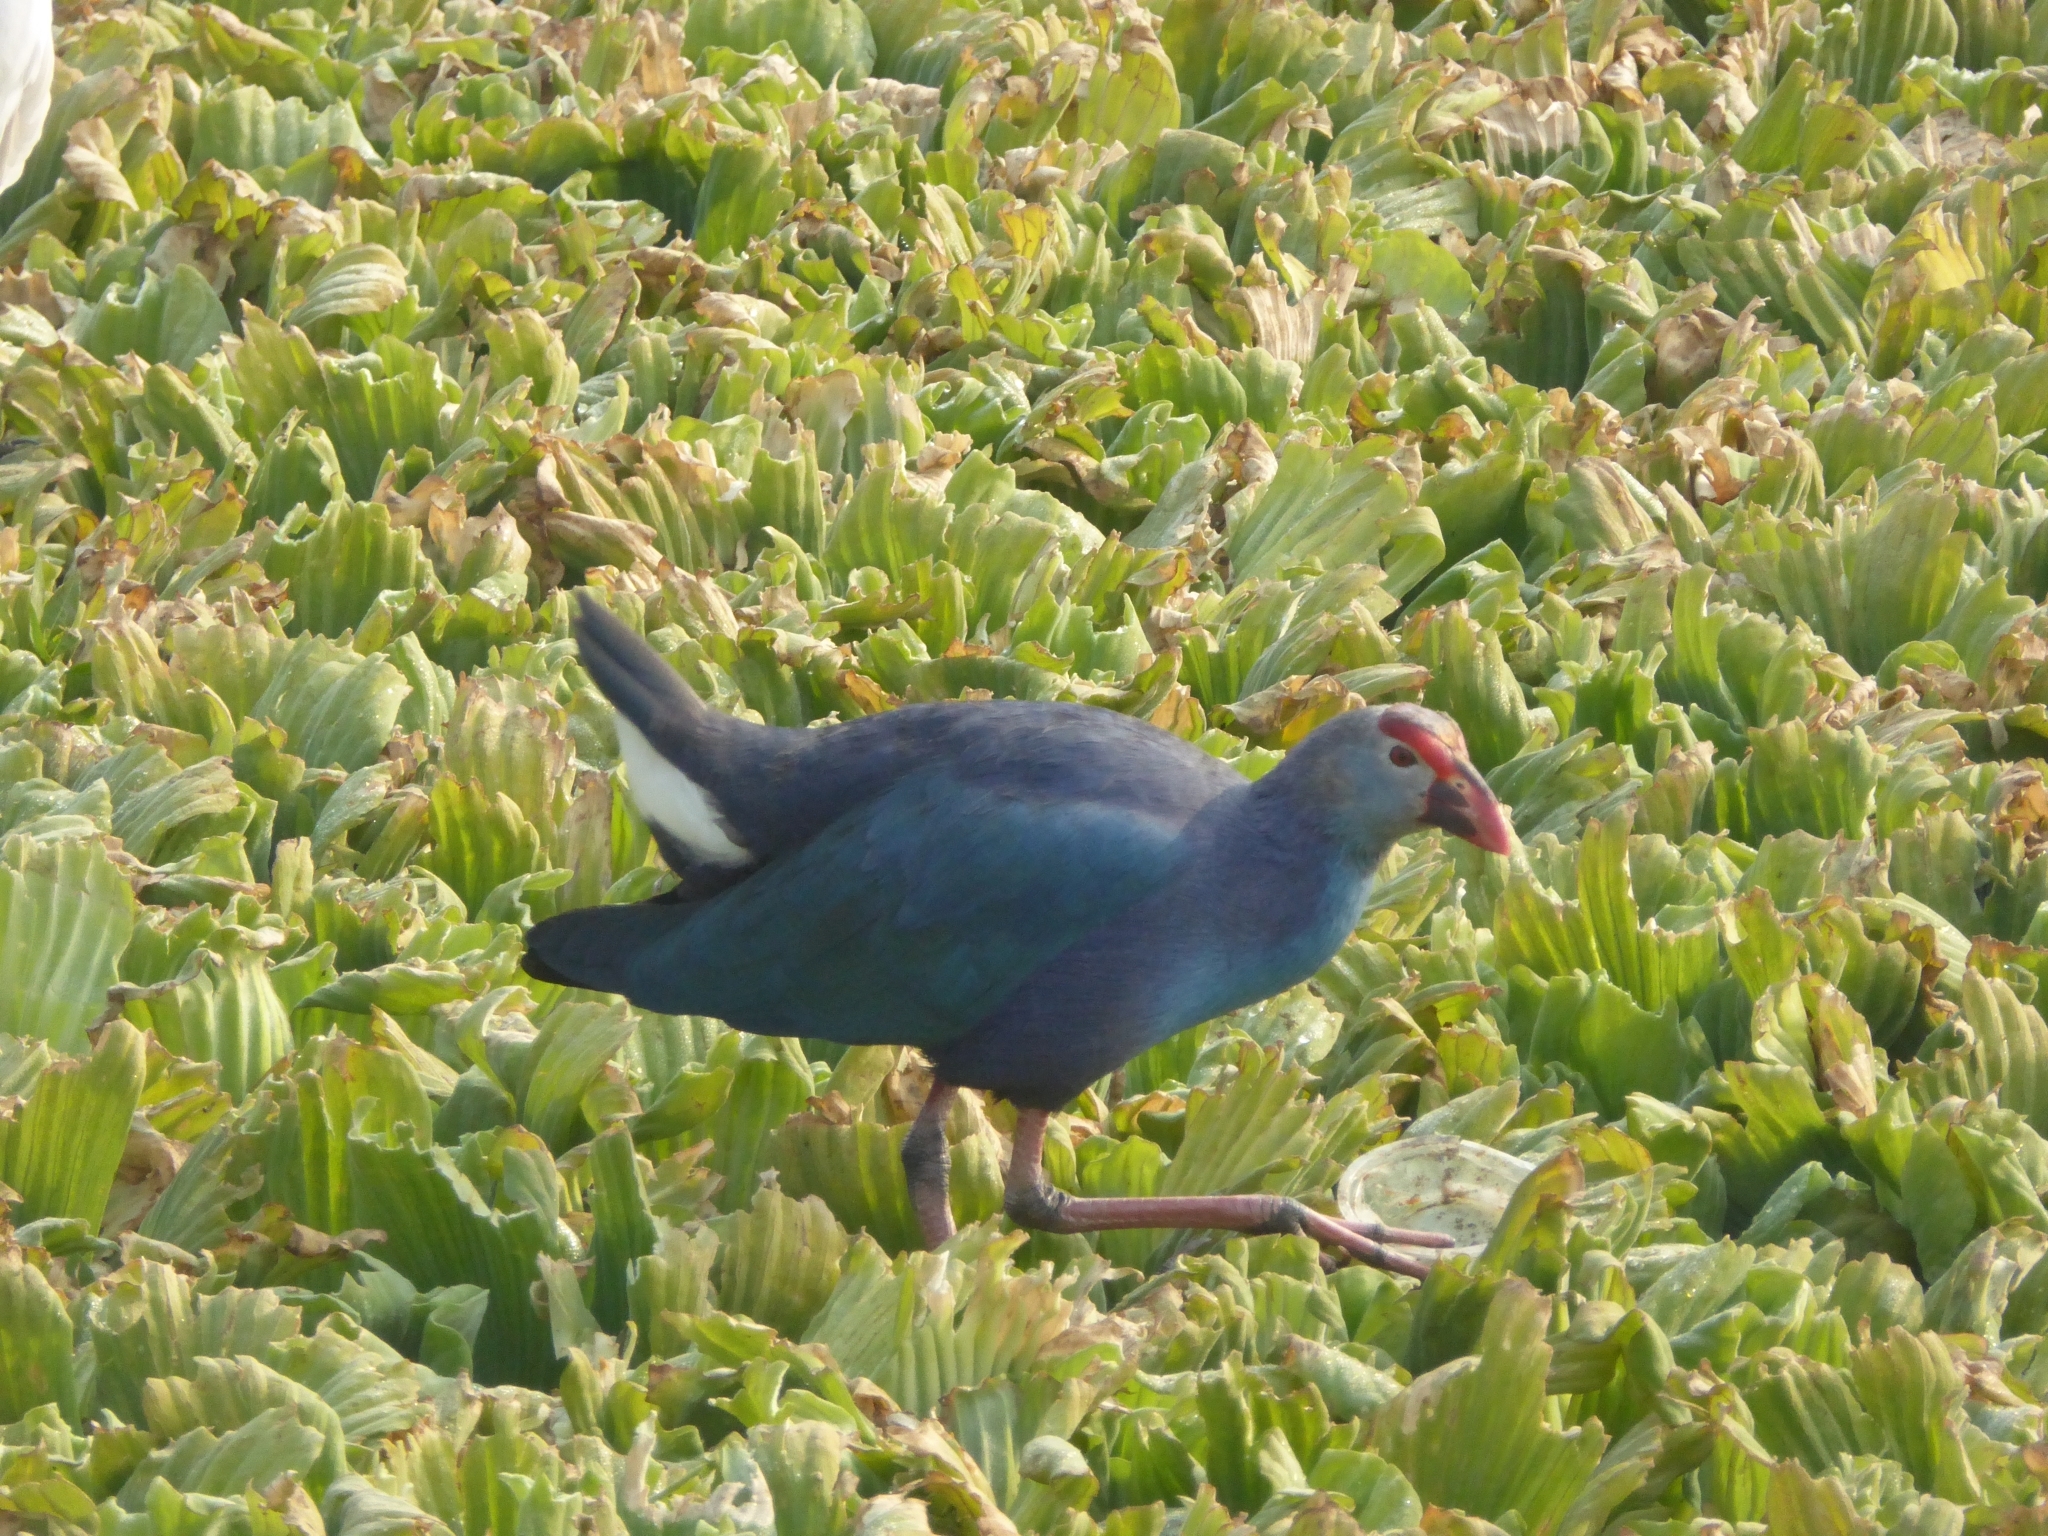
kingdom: Animalia
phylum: Chordata
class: Aves
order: Gruiformes
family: Rallidae
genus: Porphyrio
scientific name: Porphyrio porphyrio
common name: Purple swamphen
